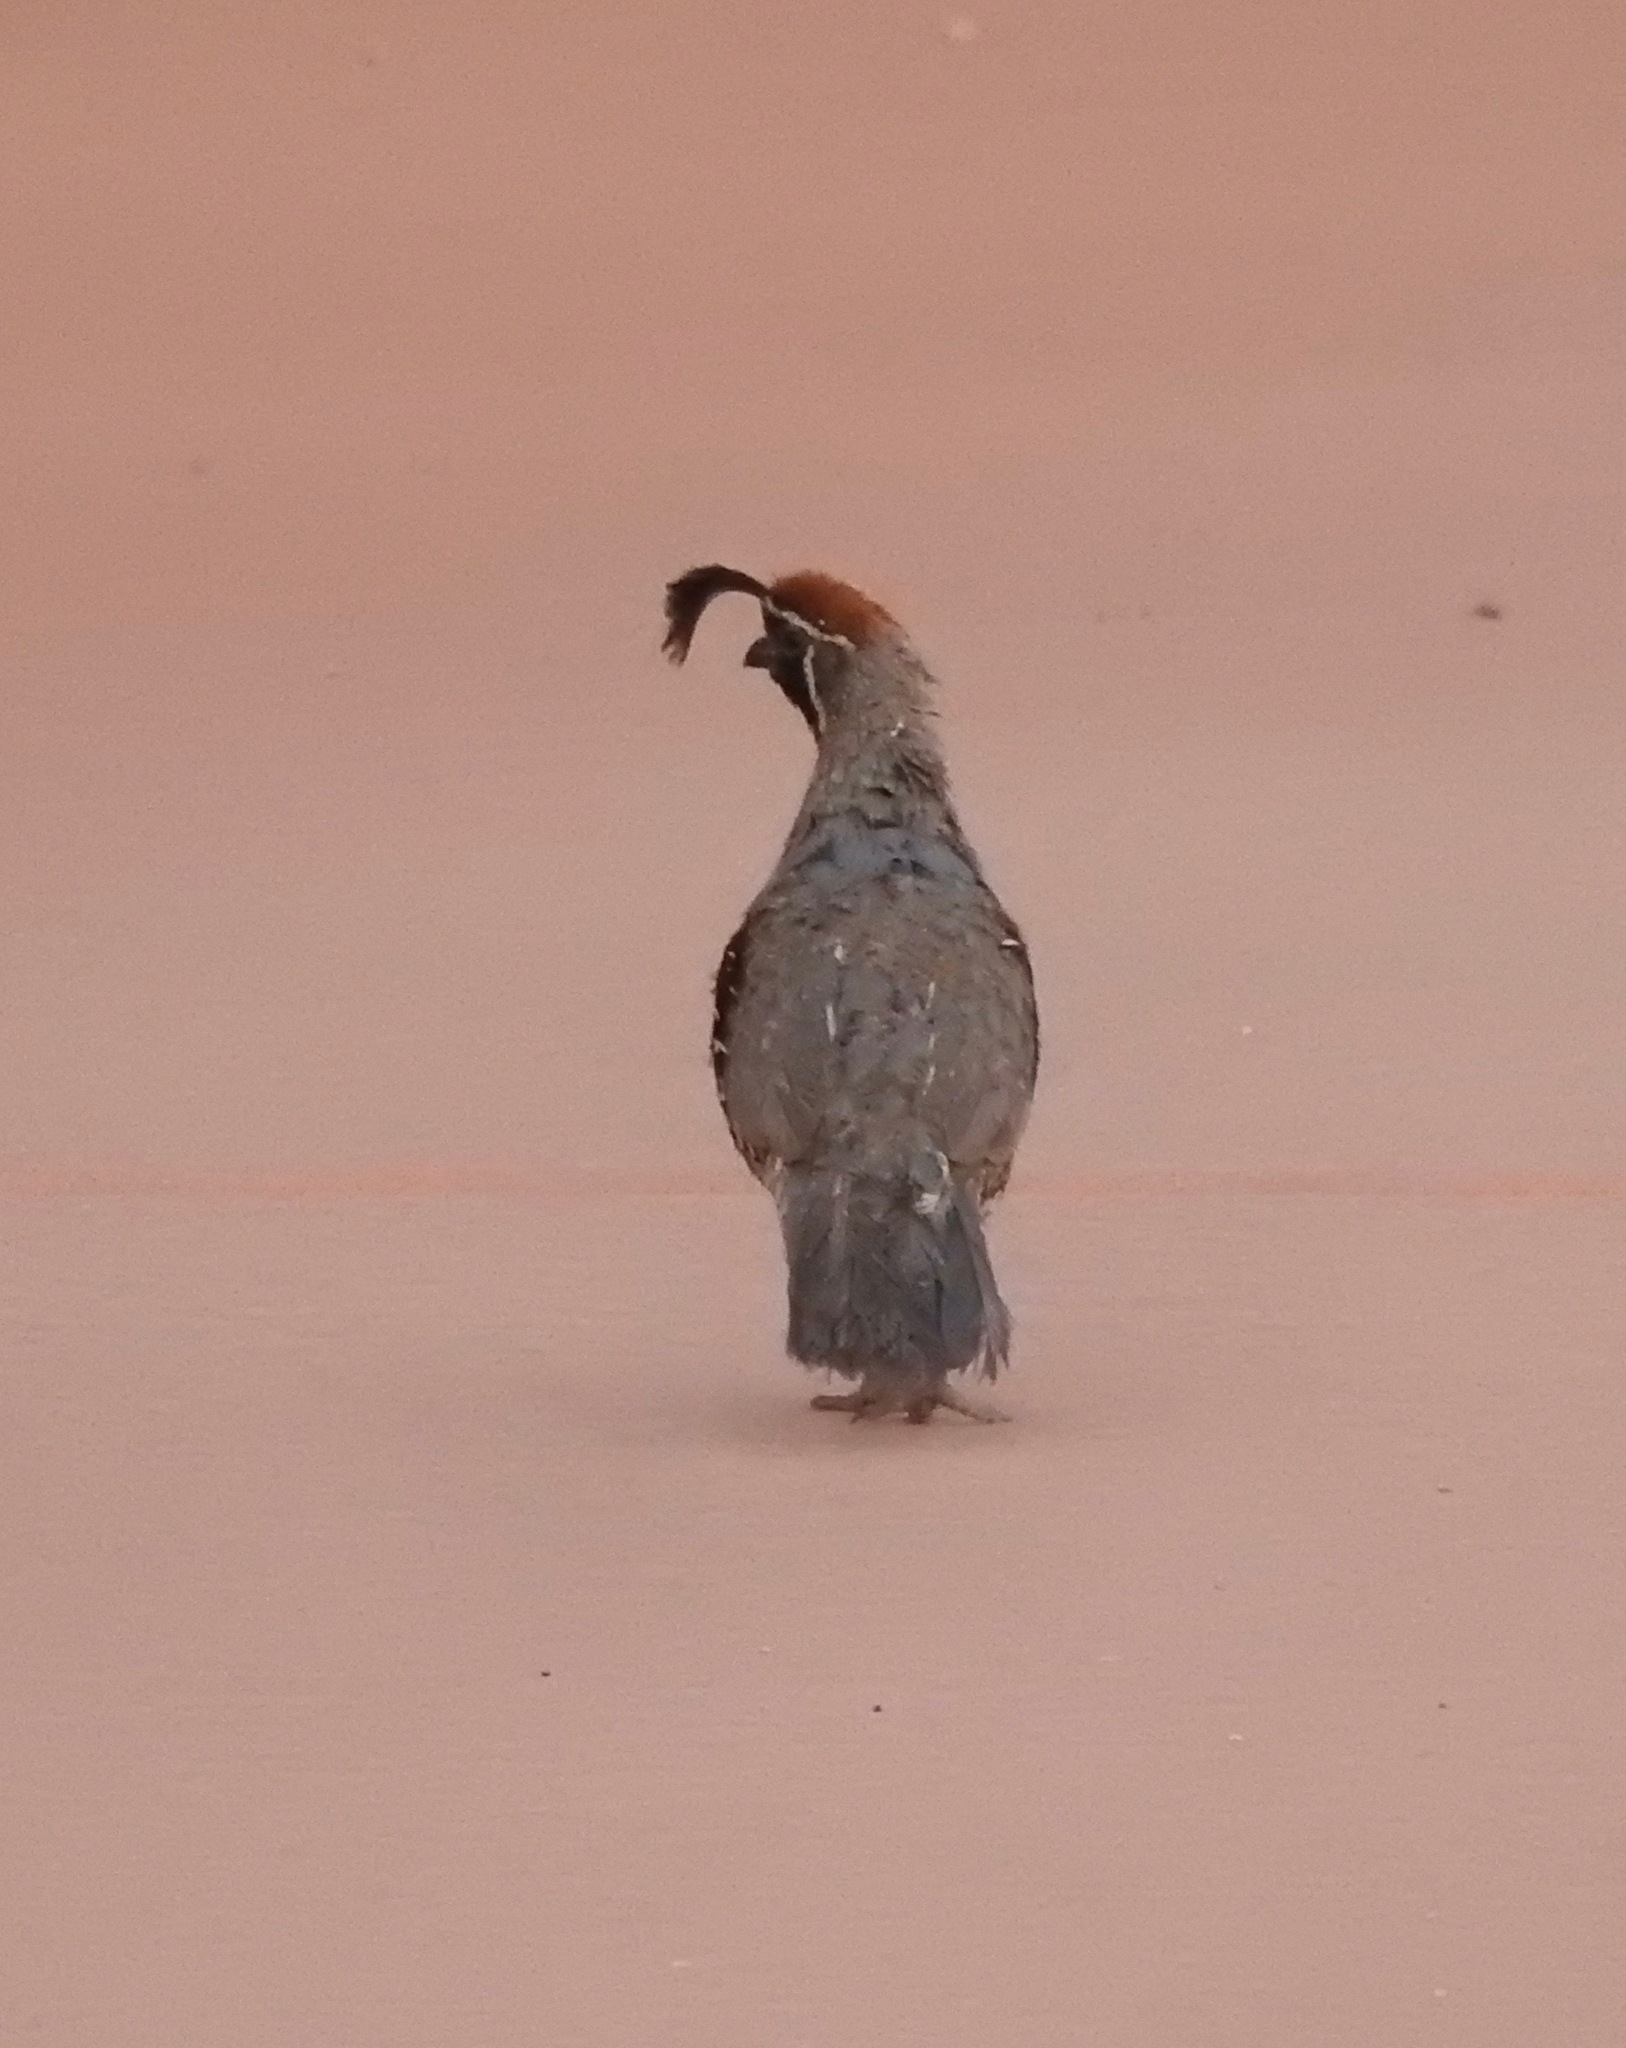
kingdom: Animalia
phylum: Chordata
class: Aves
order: Galliformes
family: Odontophoridae
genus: Callipepla
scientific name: Callipepla gambelii
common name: Gambel's quail
